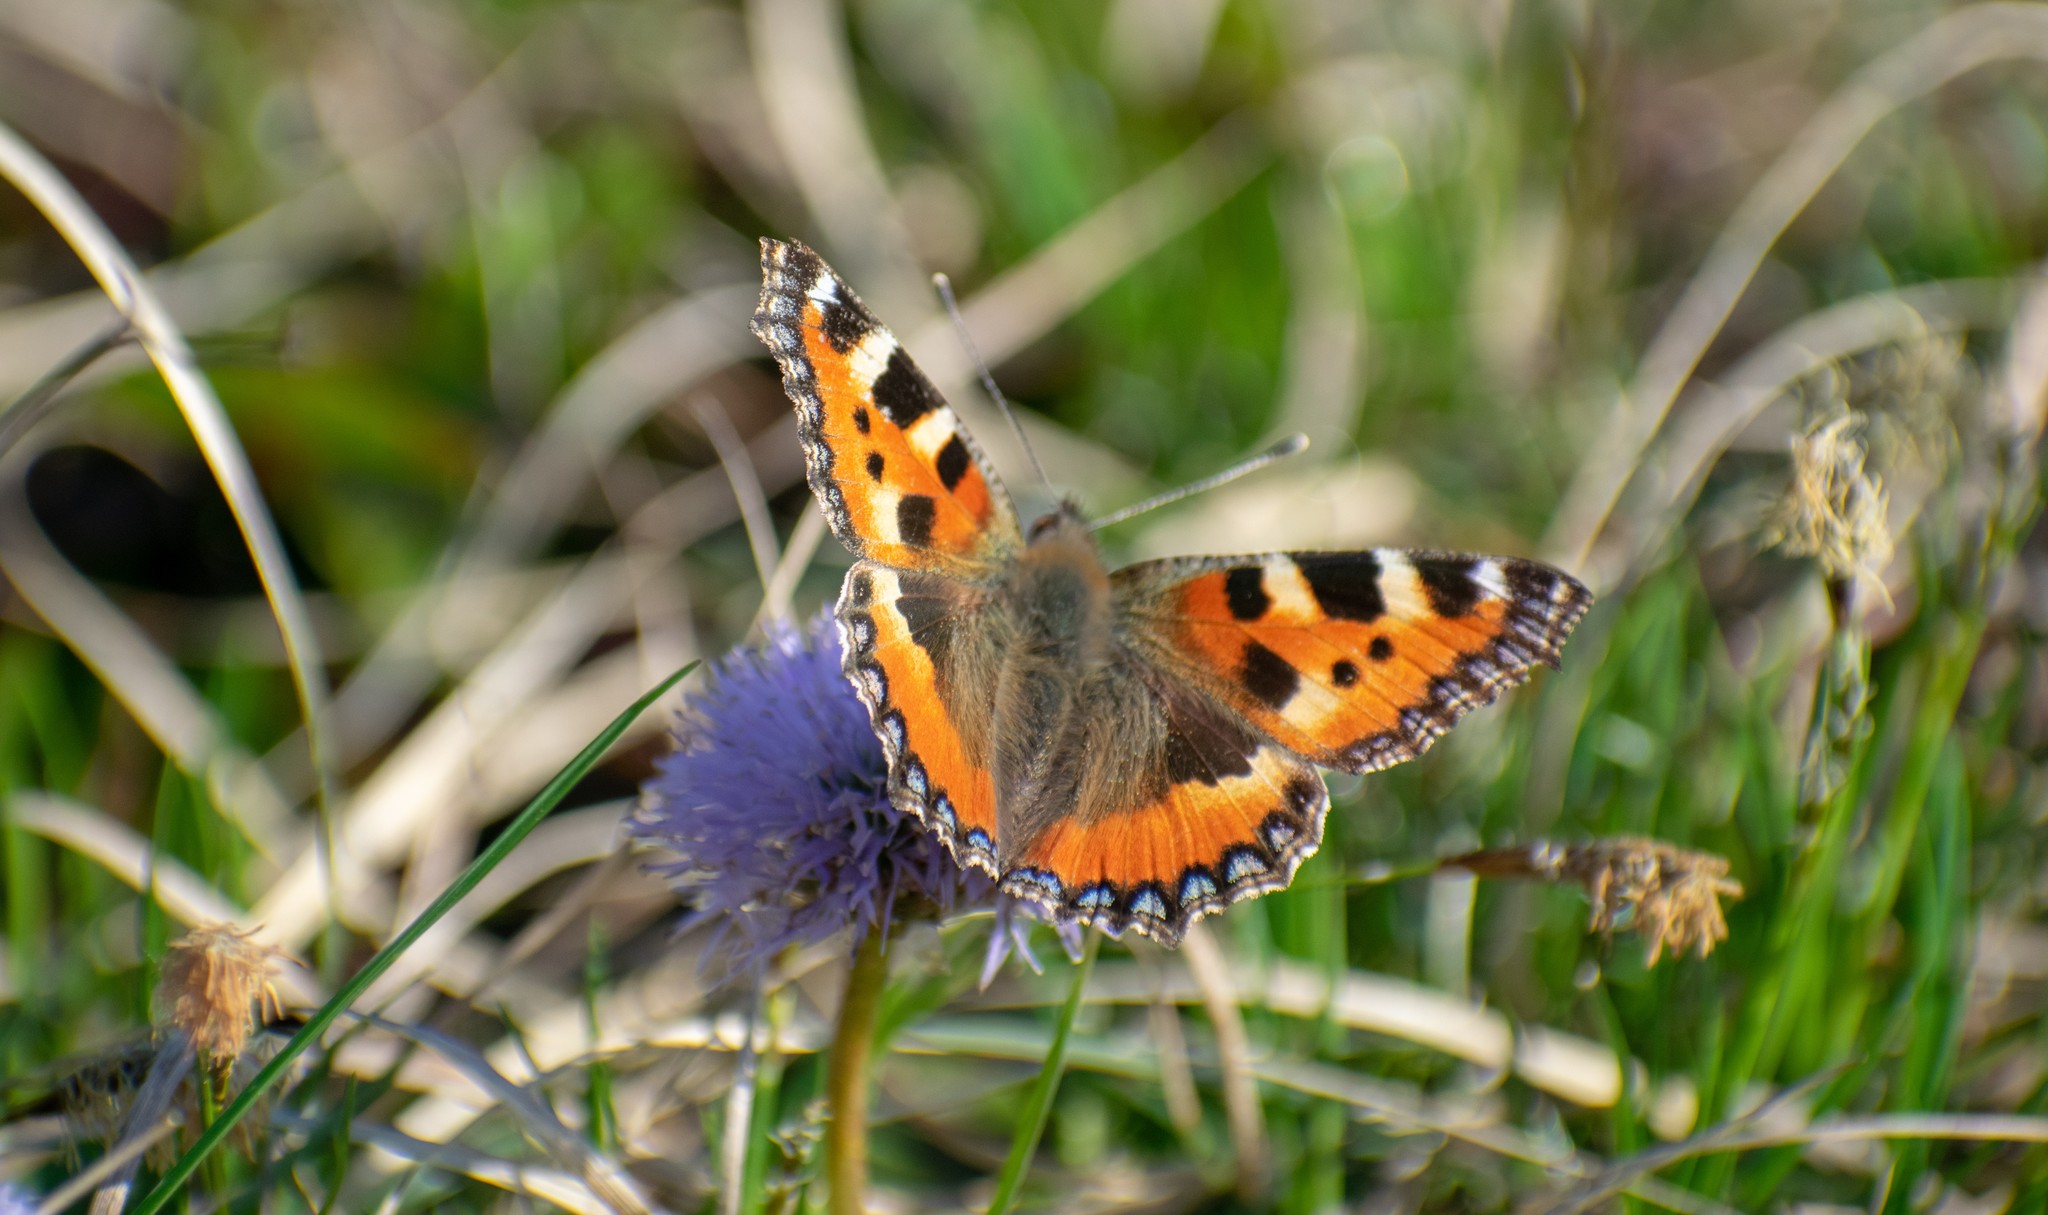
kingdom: Animalia
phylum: Arthropoda
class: Insecta
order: Lepidoptera
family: Nymphalidae
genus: Aglais
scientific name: Aglais urticae
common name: Small tortoiseshell
